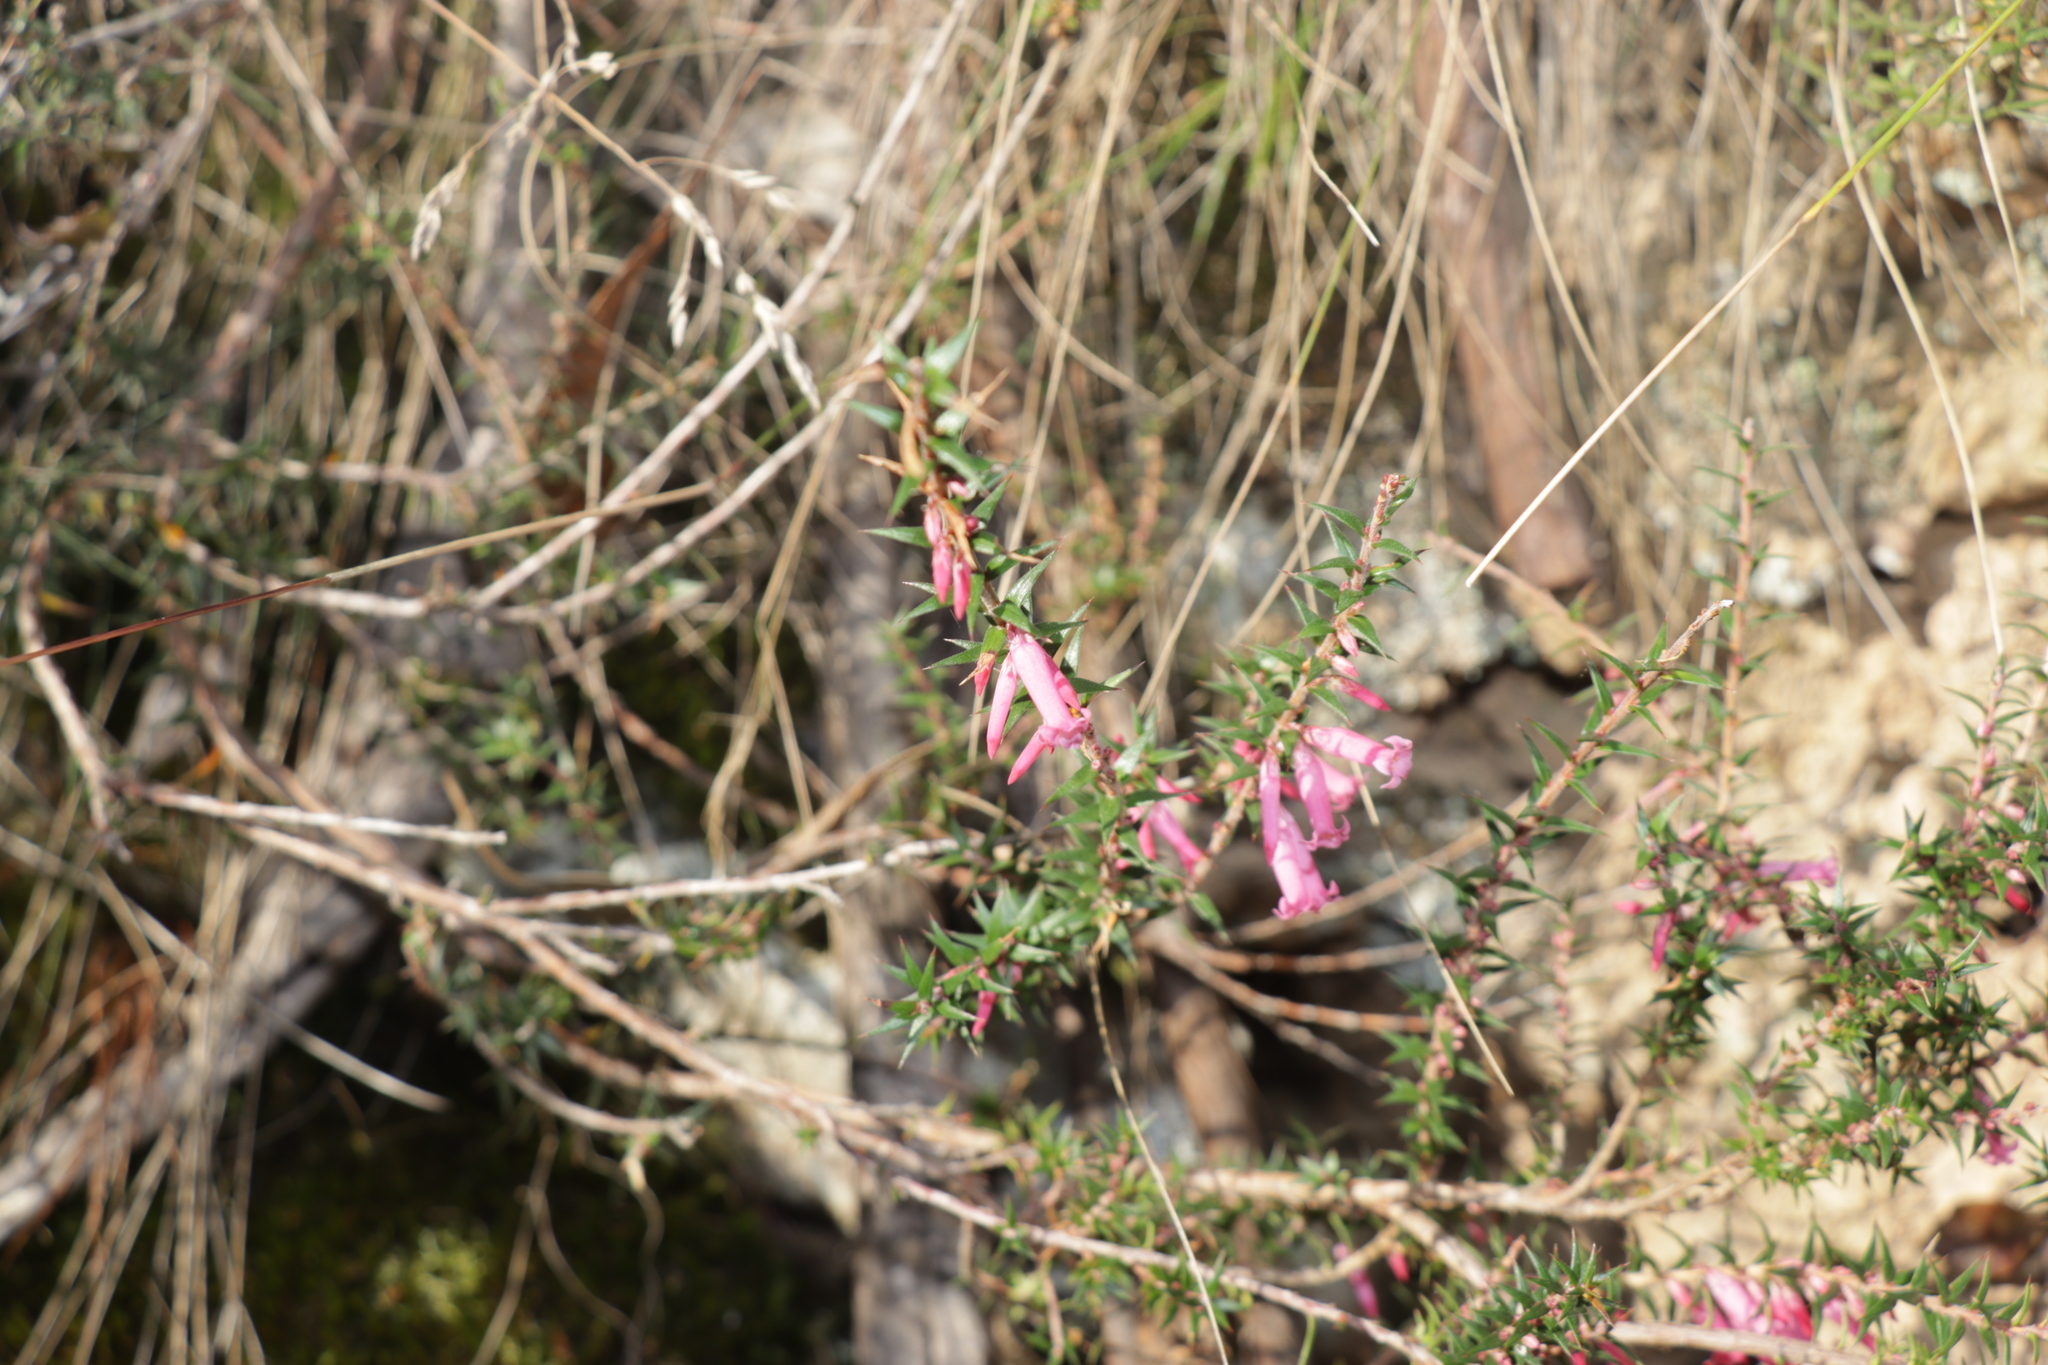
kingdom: Plantae
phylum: Tracheophyta
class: Magnoliopsida
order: Ericales
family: Ericaceae
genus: Epacris
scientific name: Epacris impressa
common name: Common-heath
